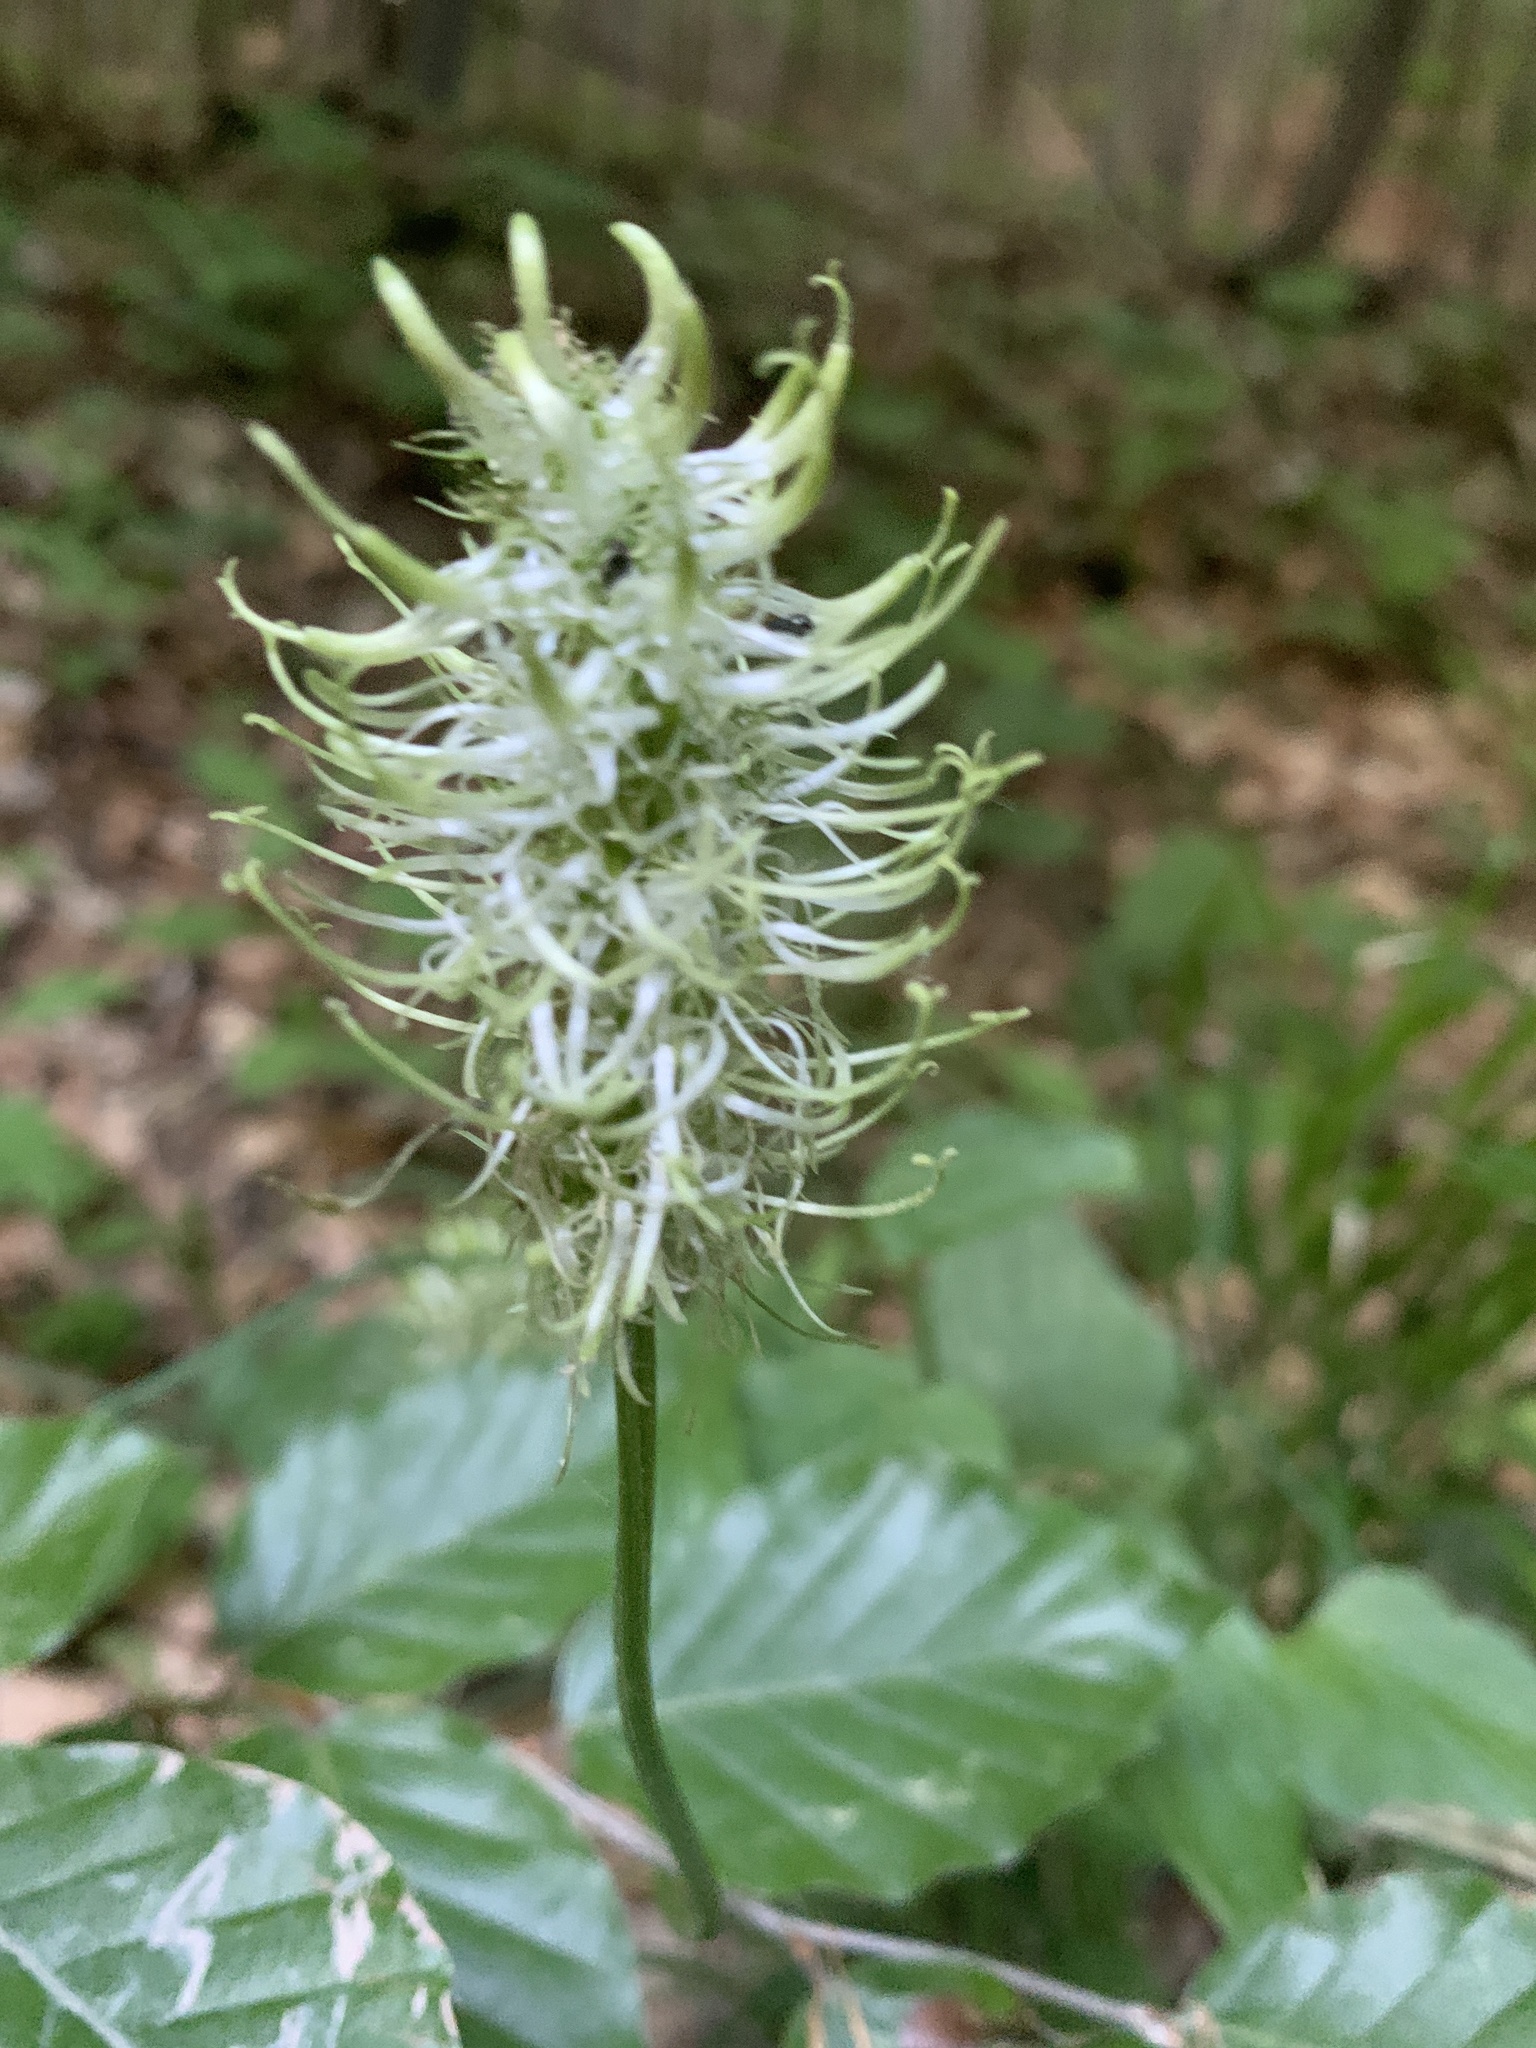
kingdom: Plantae
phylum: Tracheophyta
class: Magnoliopsida
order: Asterales
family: Campanulaceae
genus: Phyteuma
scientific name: Phyteuma spicatum
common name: Spiked rampion
